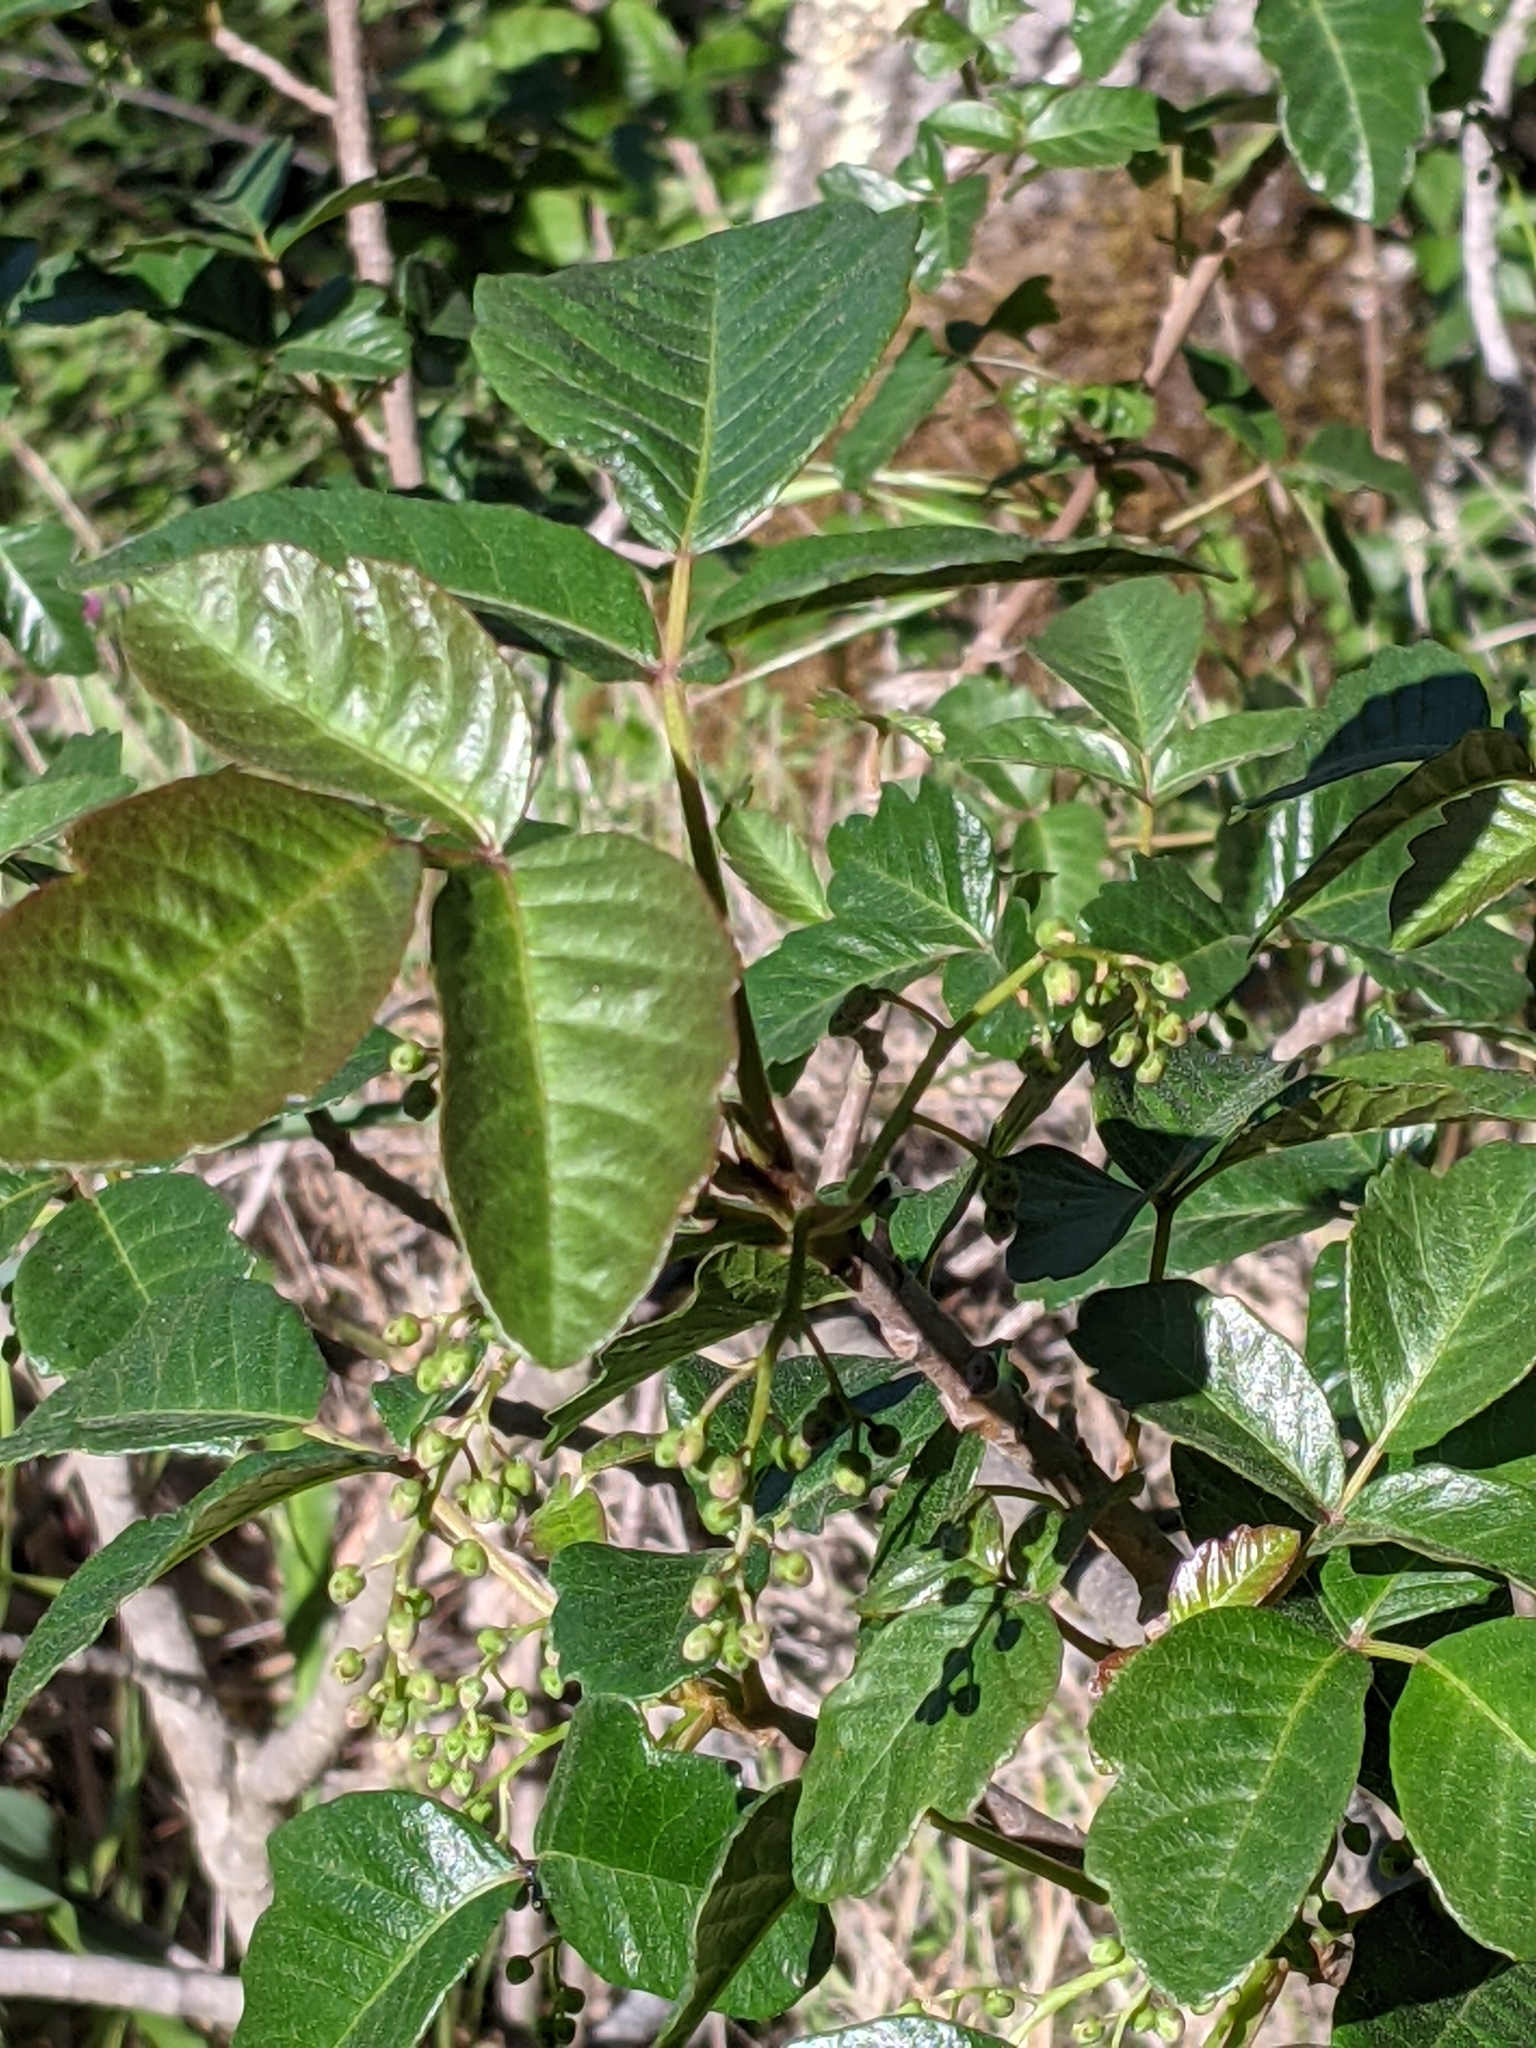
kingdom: Plantae
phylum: Tracheophyta
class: Magnoliopsida
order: Sapindales
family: Anacardiaceae
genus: Toxicodendron
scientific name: Toxicodendron diversilobum
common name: Pacific poison-oak
